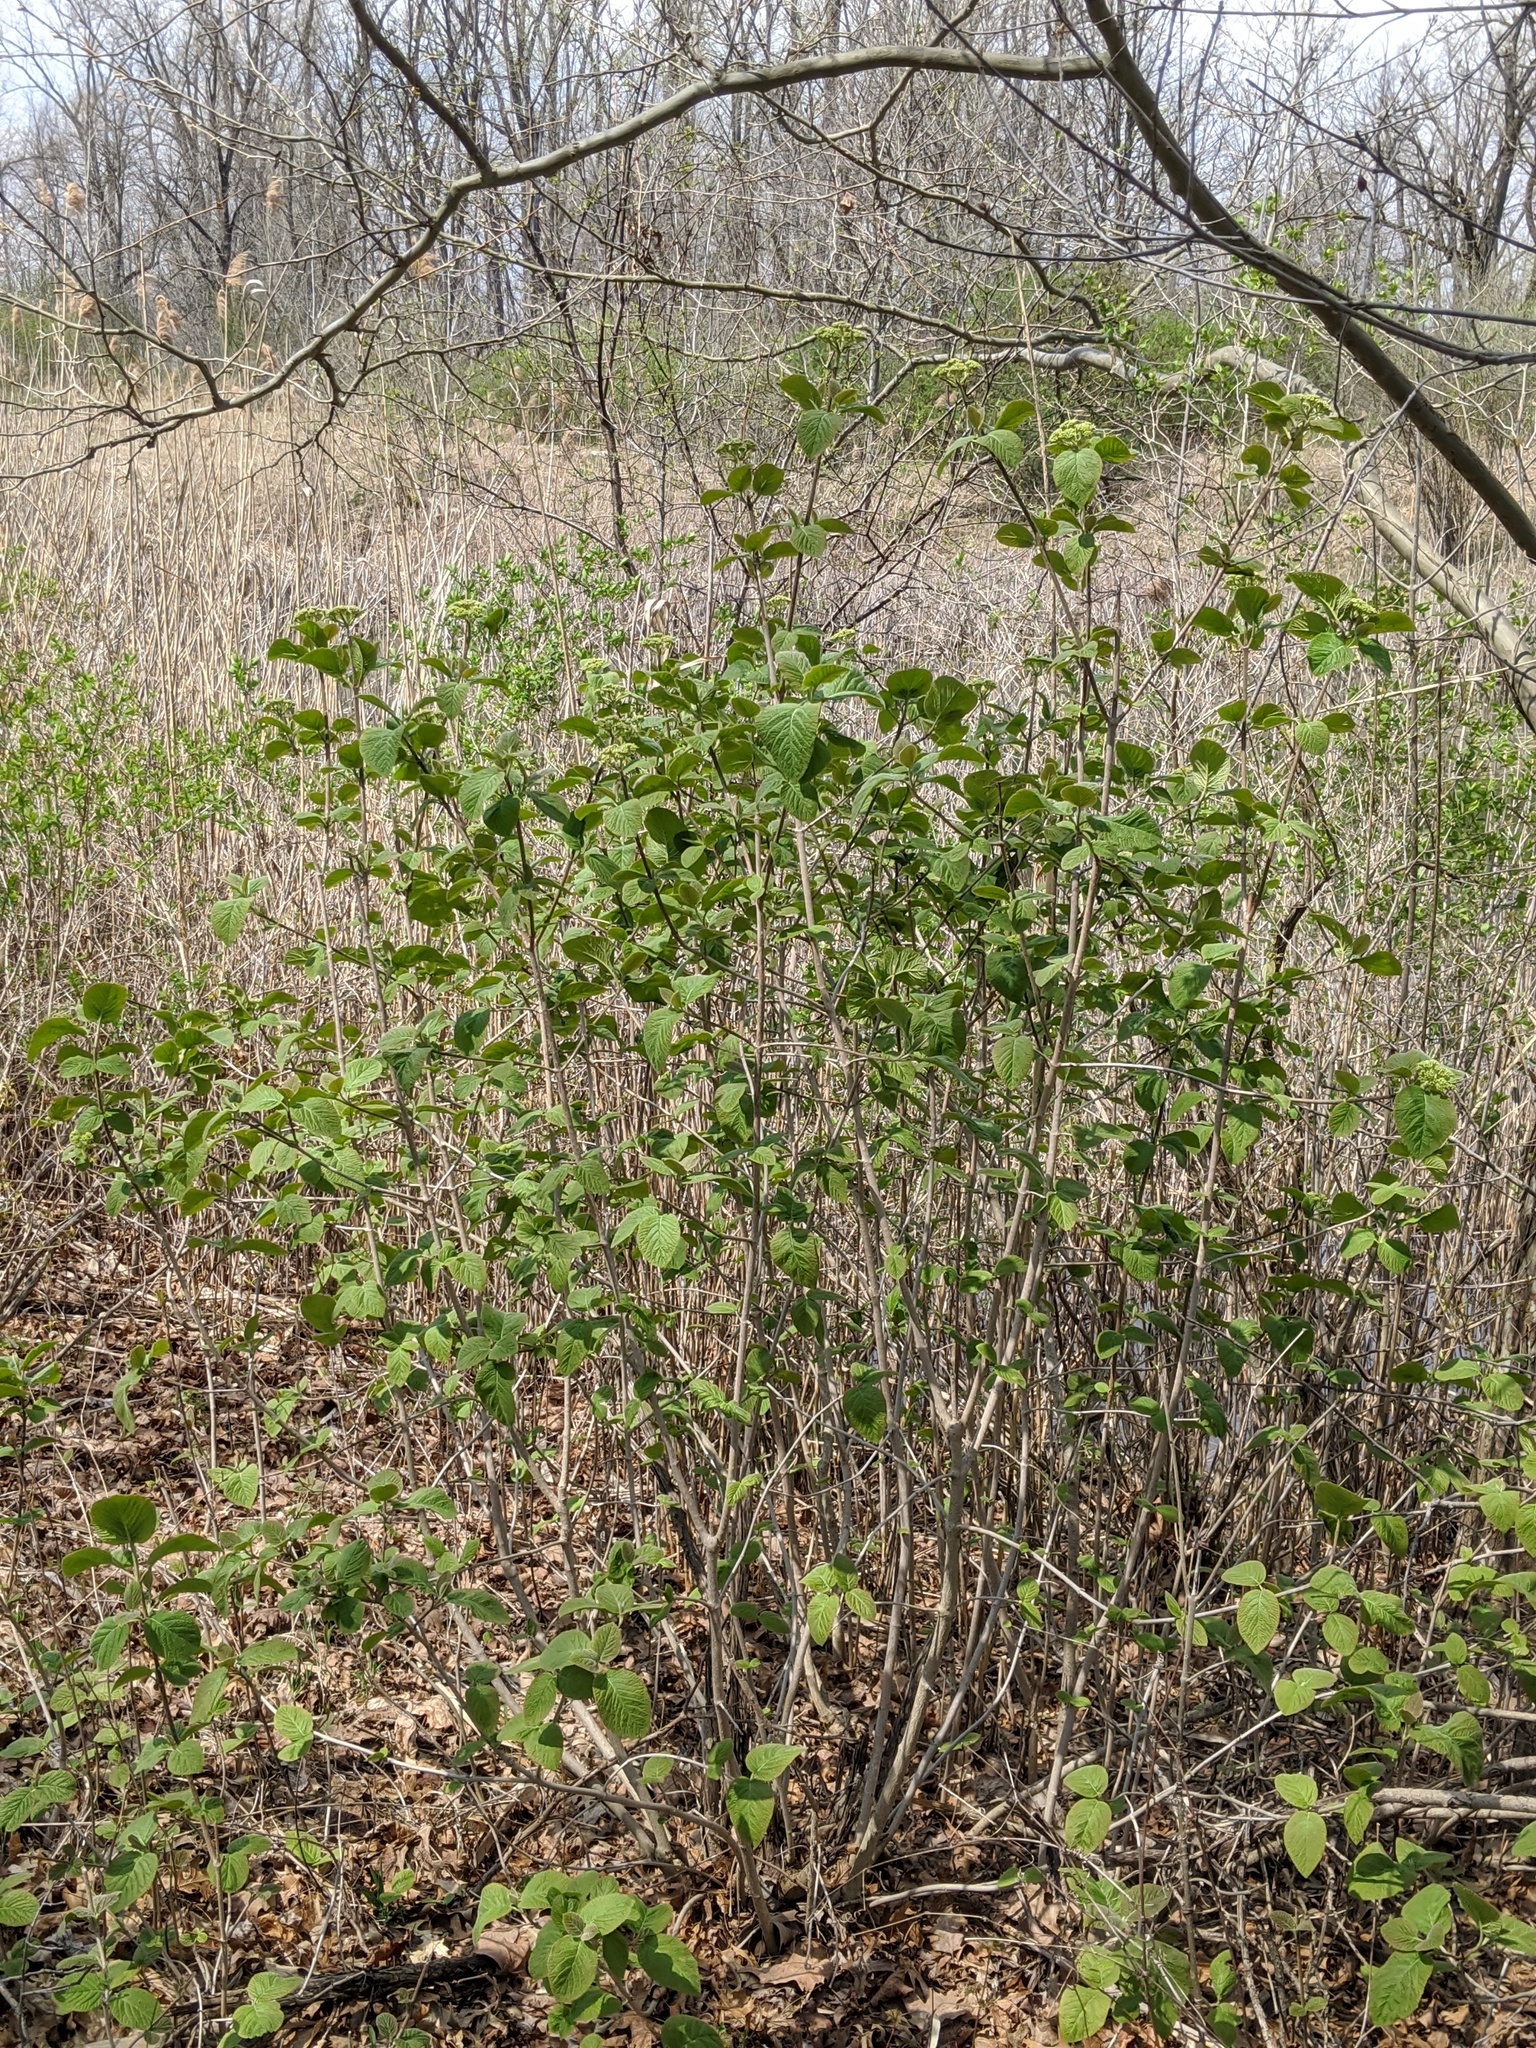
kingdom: Plantae
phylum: Tracheophyta
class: Magnoliopsida
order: Dipsacales
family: Viburnaceae
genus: Viburnum
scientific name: Viburnum lantana
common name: Wayfaring tree
